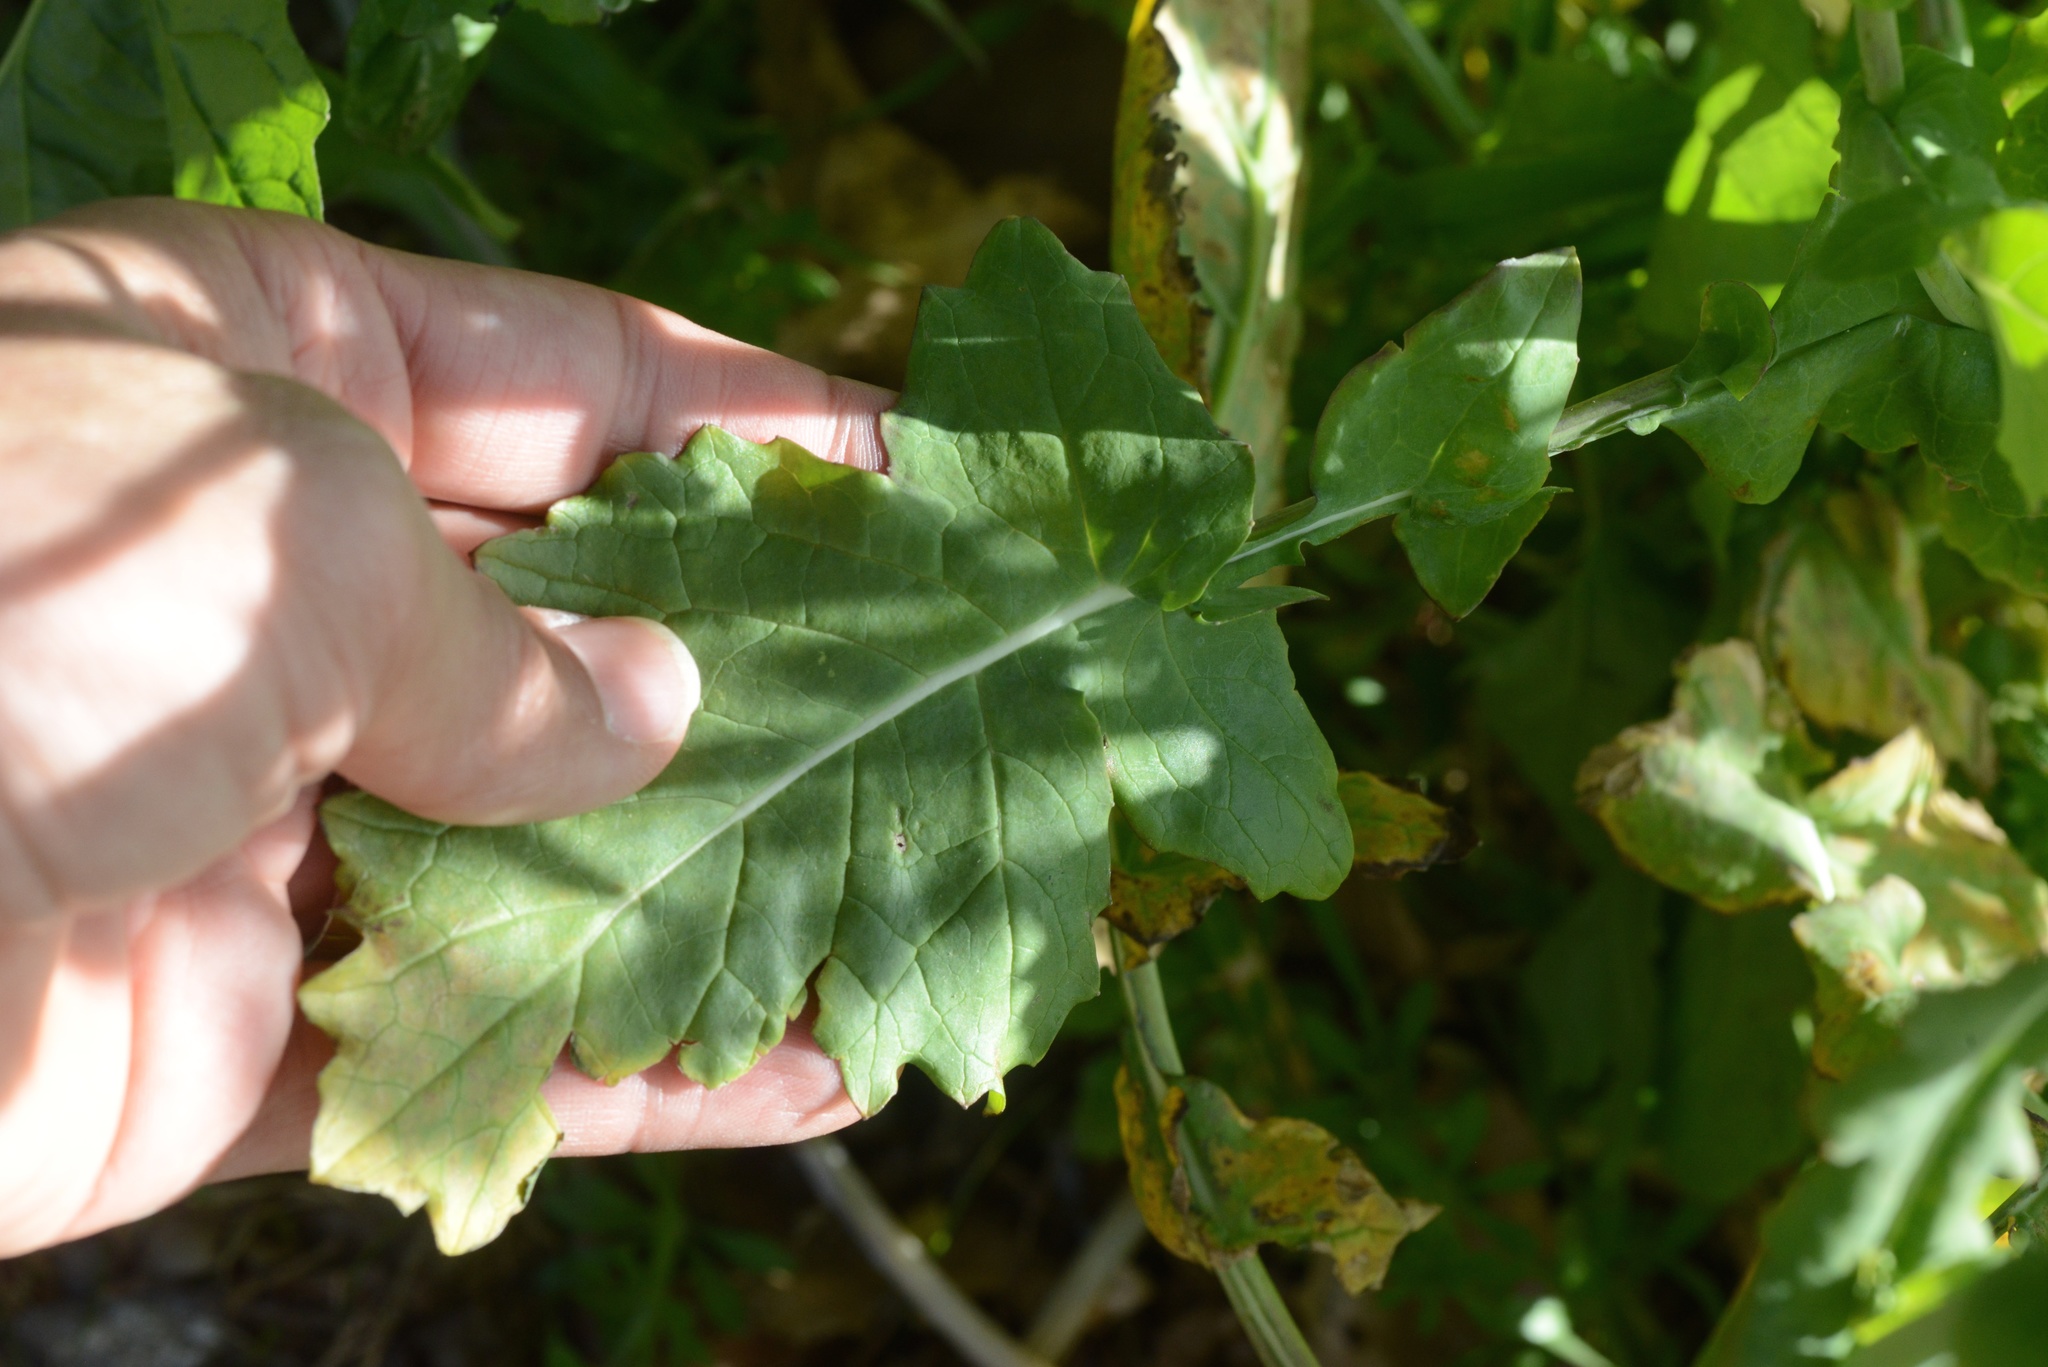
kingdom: Plantae
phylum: Tracheophyta
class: Magnoliopsida
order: Brassicales
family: Brassicaceae
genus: Brassica
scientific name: Brassica rapa
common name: Field mustard
